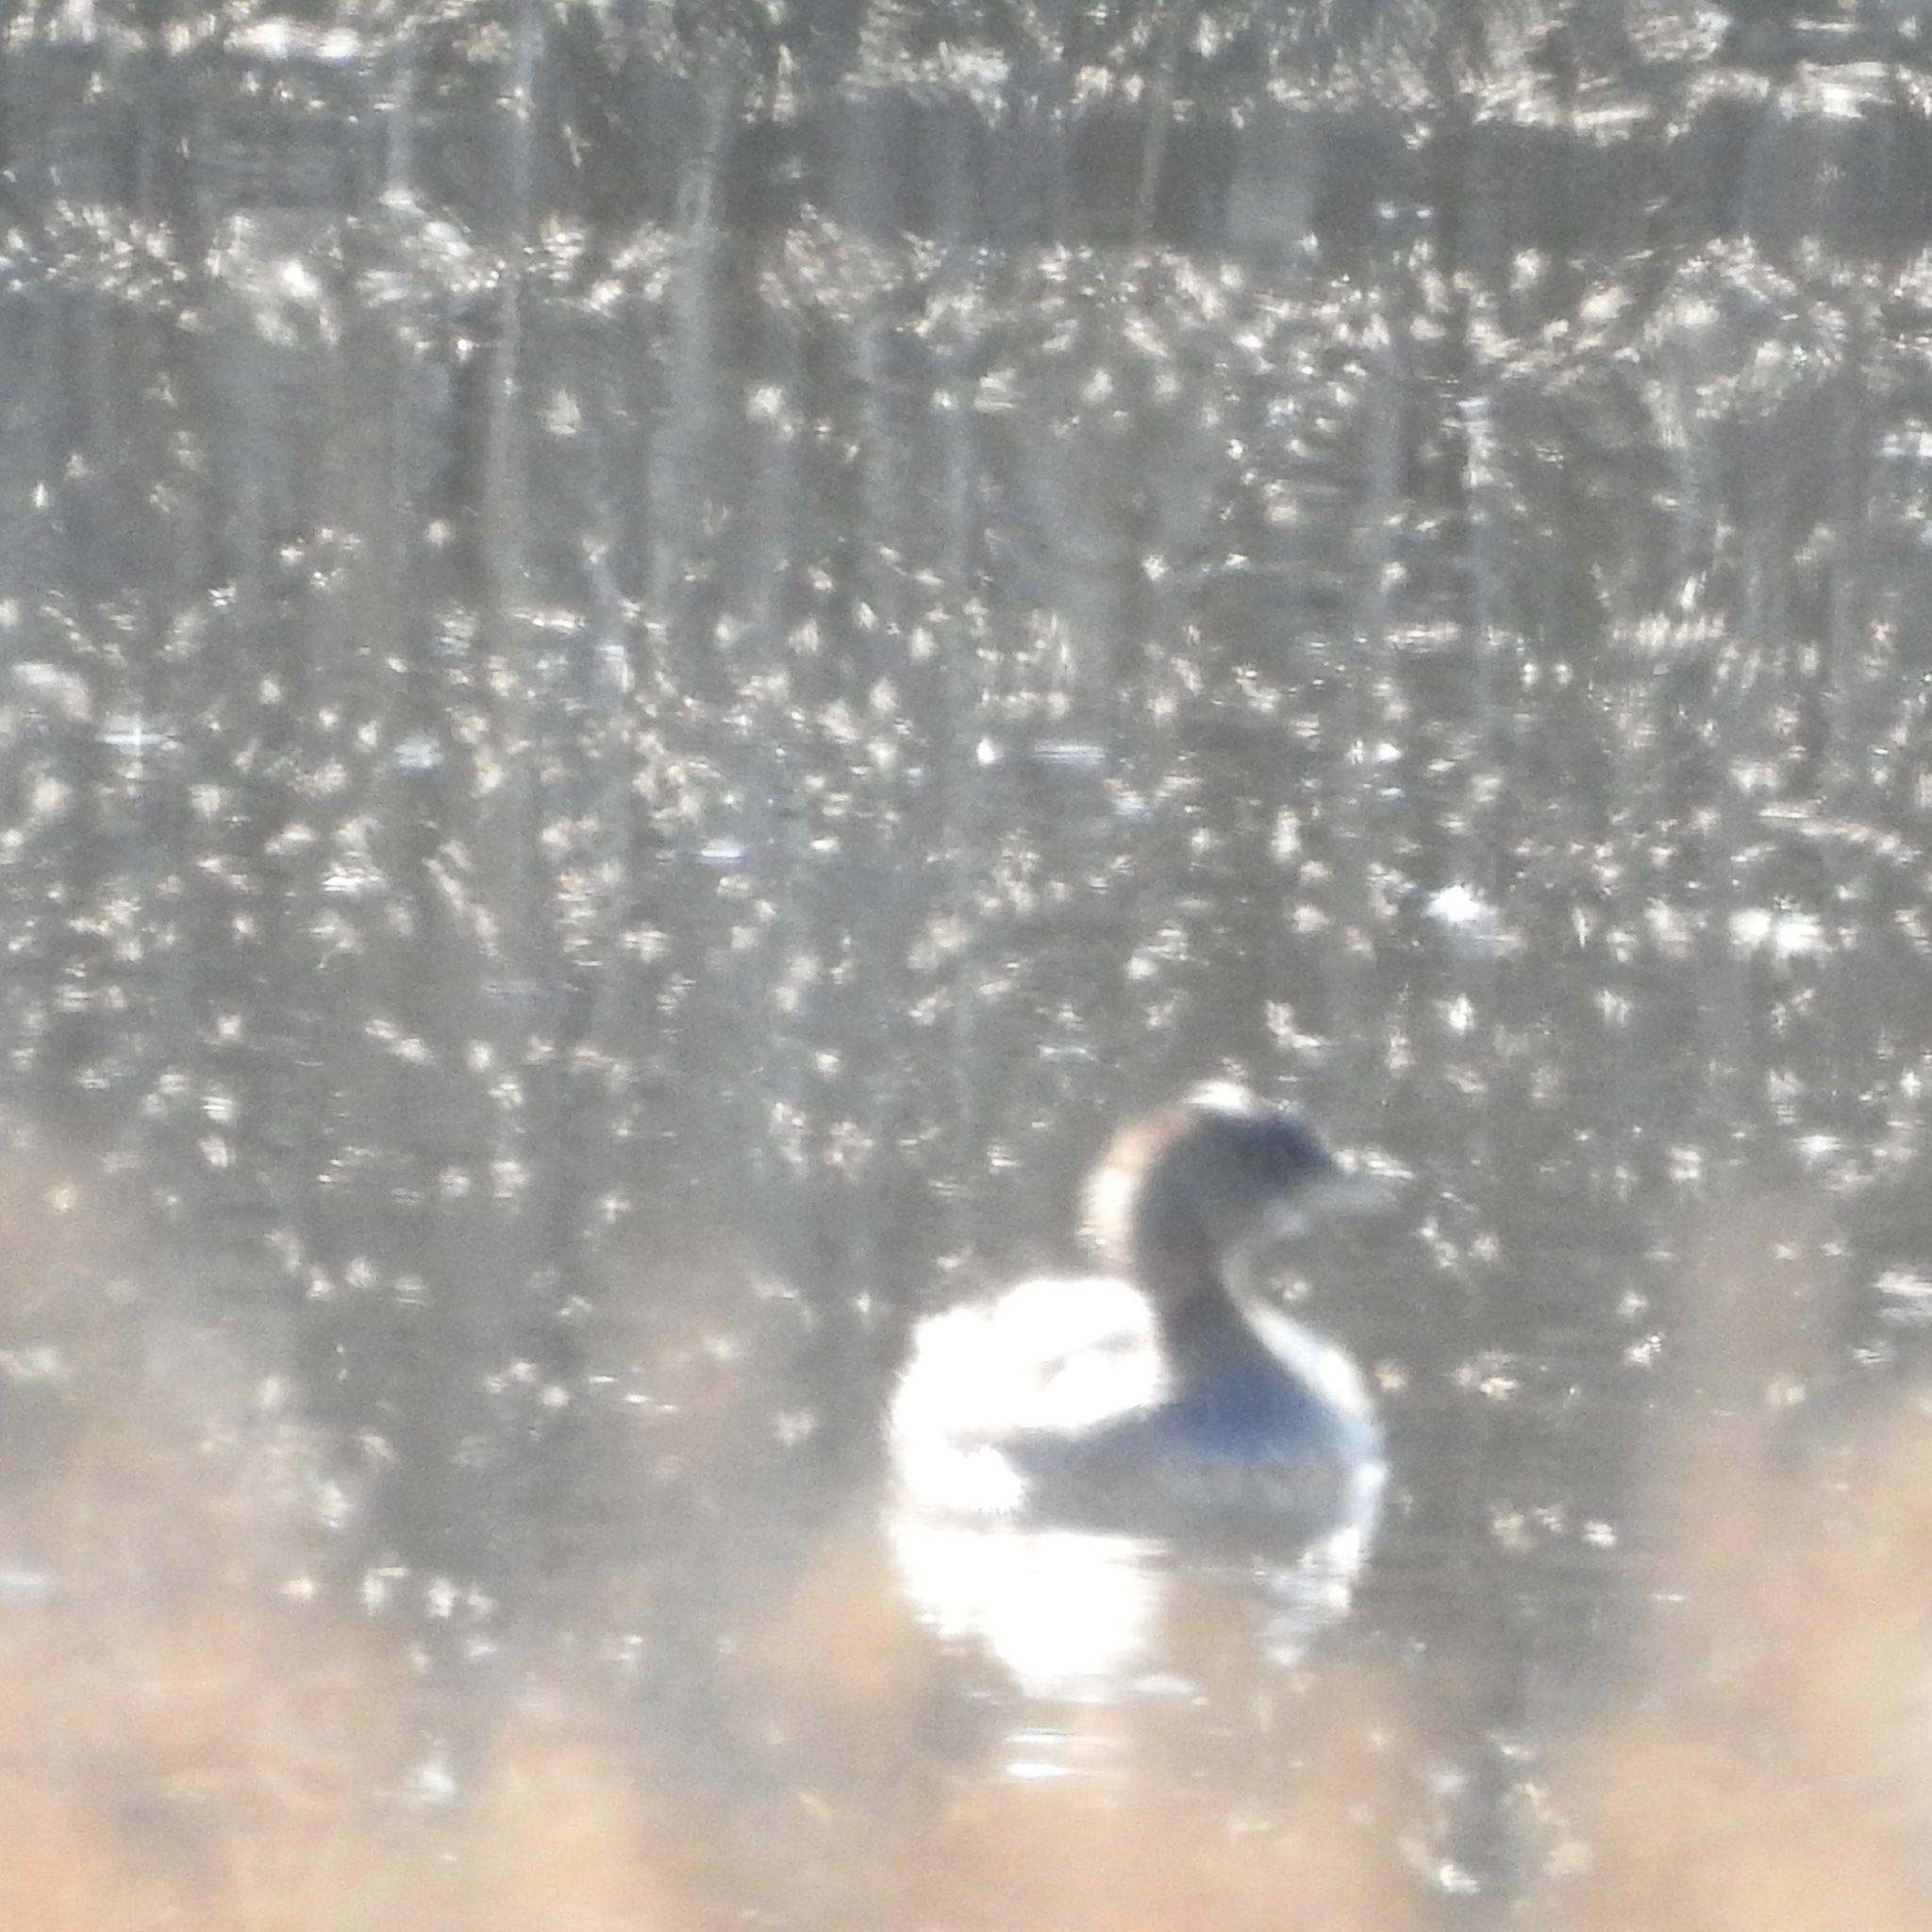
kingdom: Animalia
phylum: Chordata
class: Aves
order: Podicipediformes
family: Podicipedidae
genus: Podilymbus
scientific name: Podilymbus podiceps
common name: Pied-billed grebe
